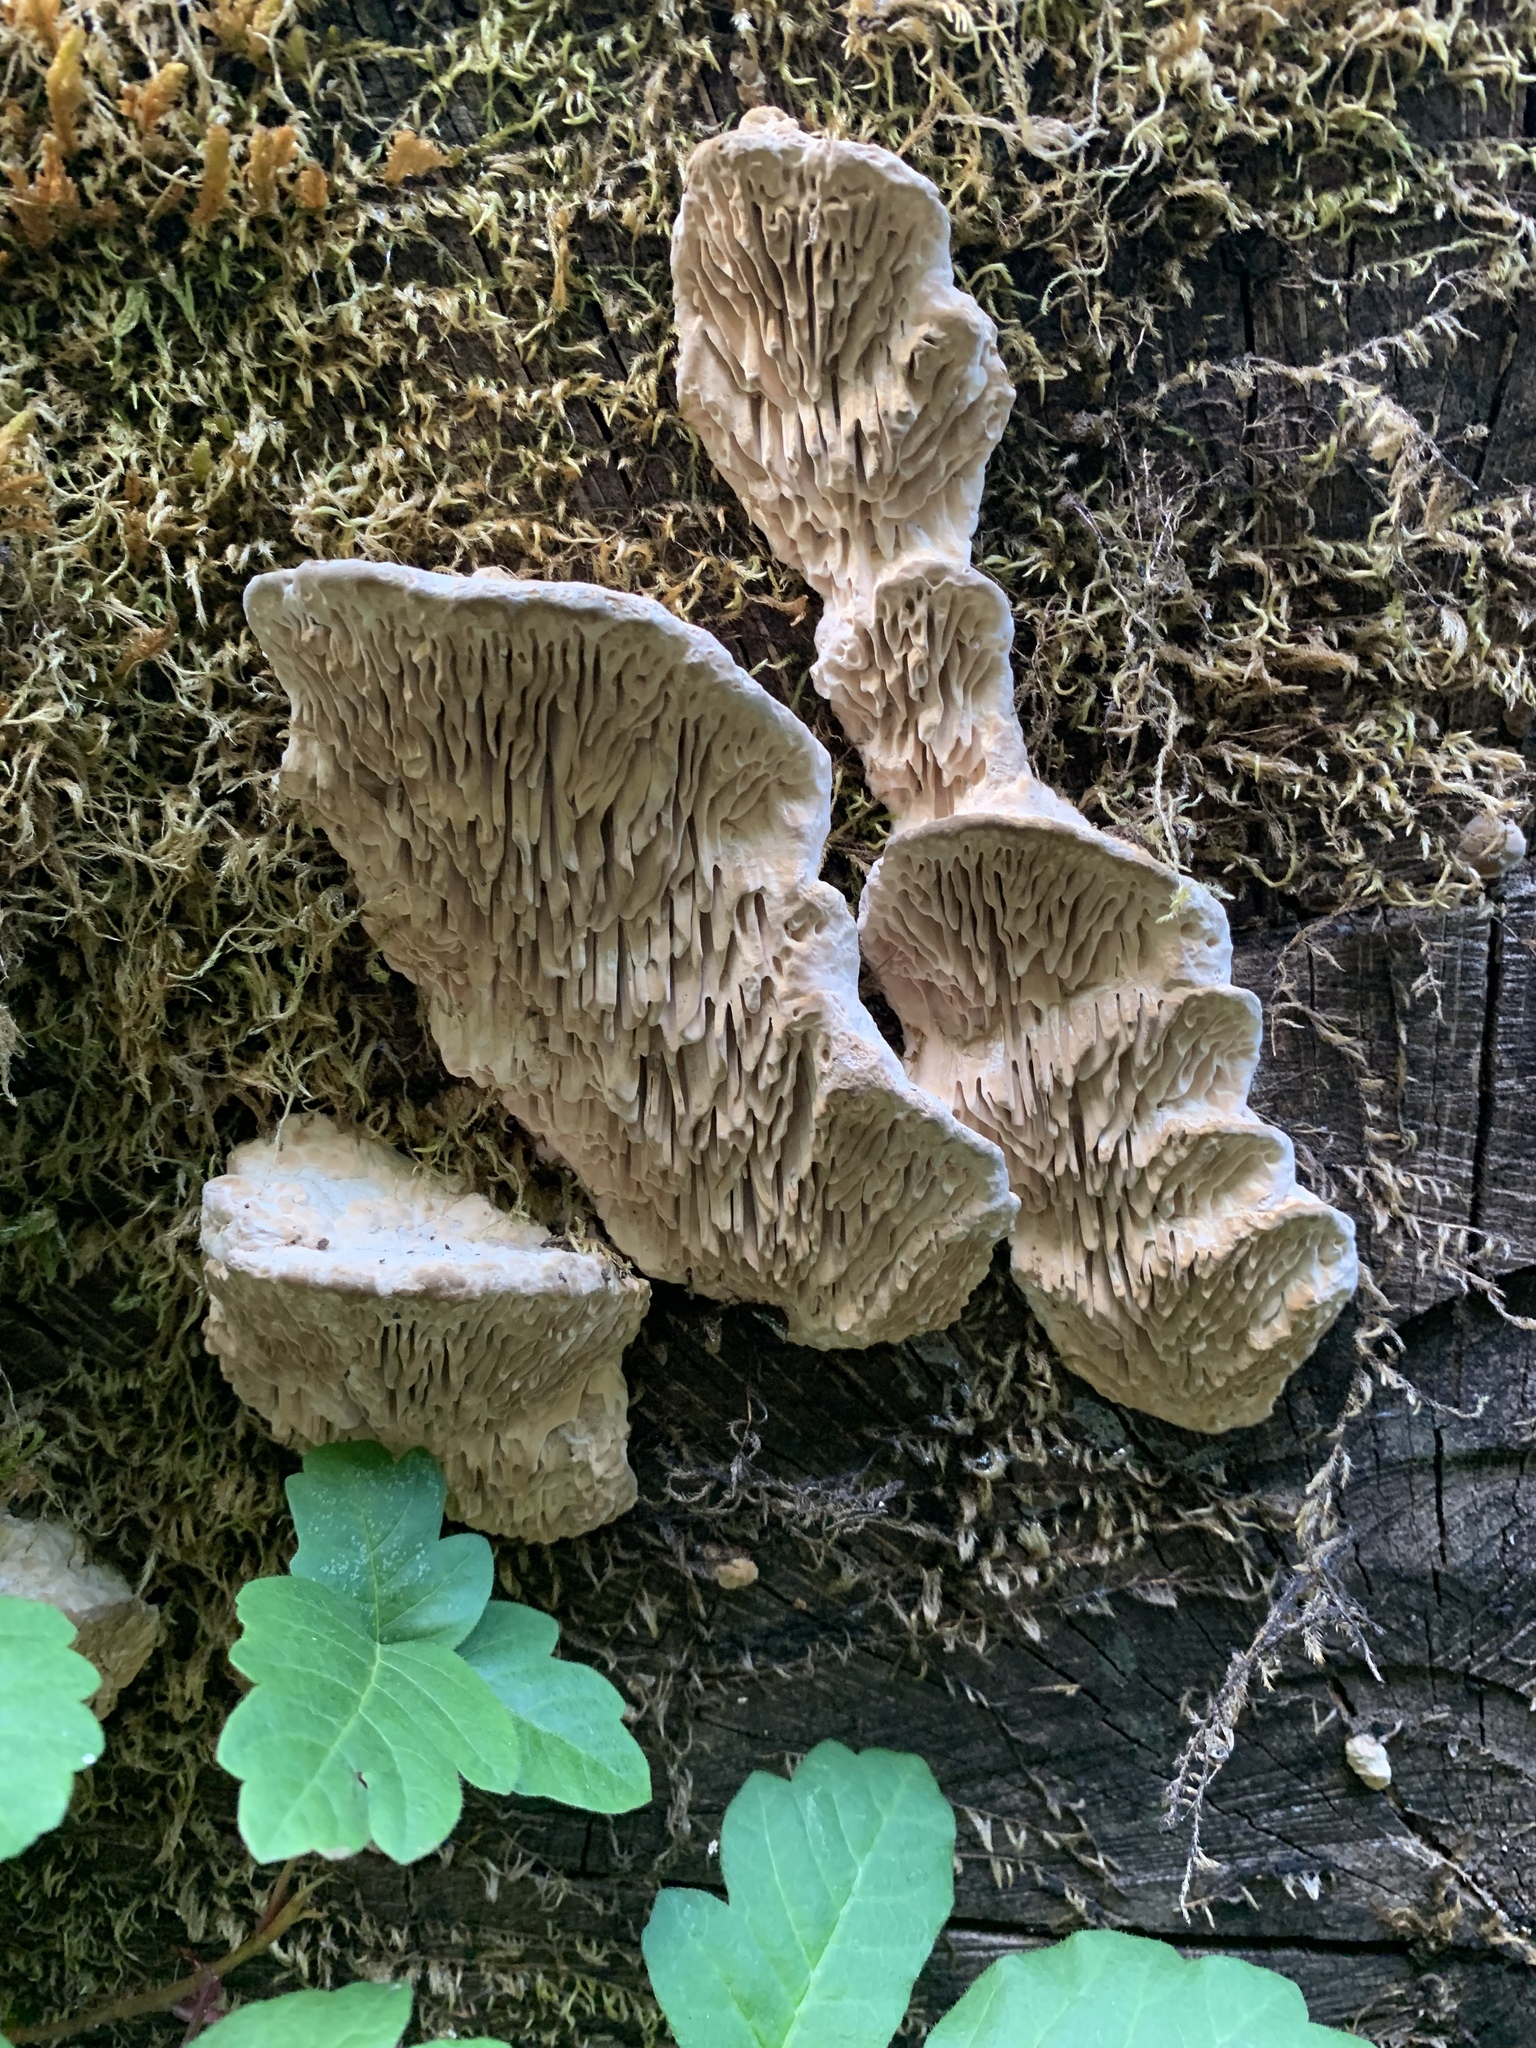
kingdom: Fungi
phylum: Basidiomycota
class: Agaricomycetes
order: Polyporales
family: Fomitopsidaceae
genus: Fomitopsis
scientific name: Fomitopsis
